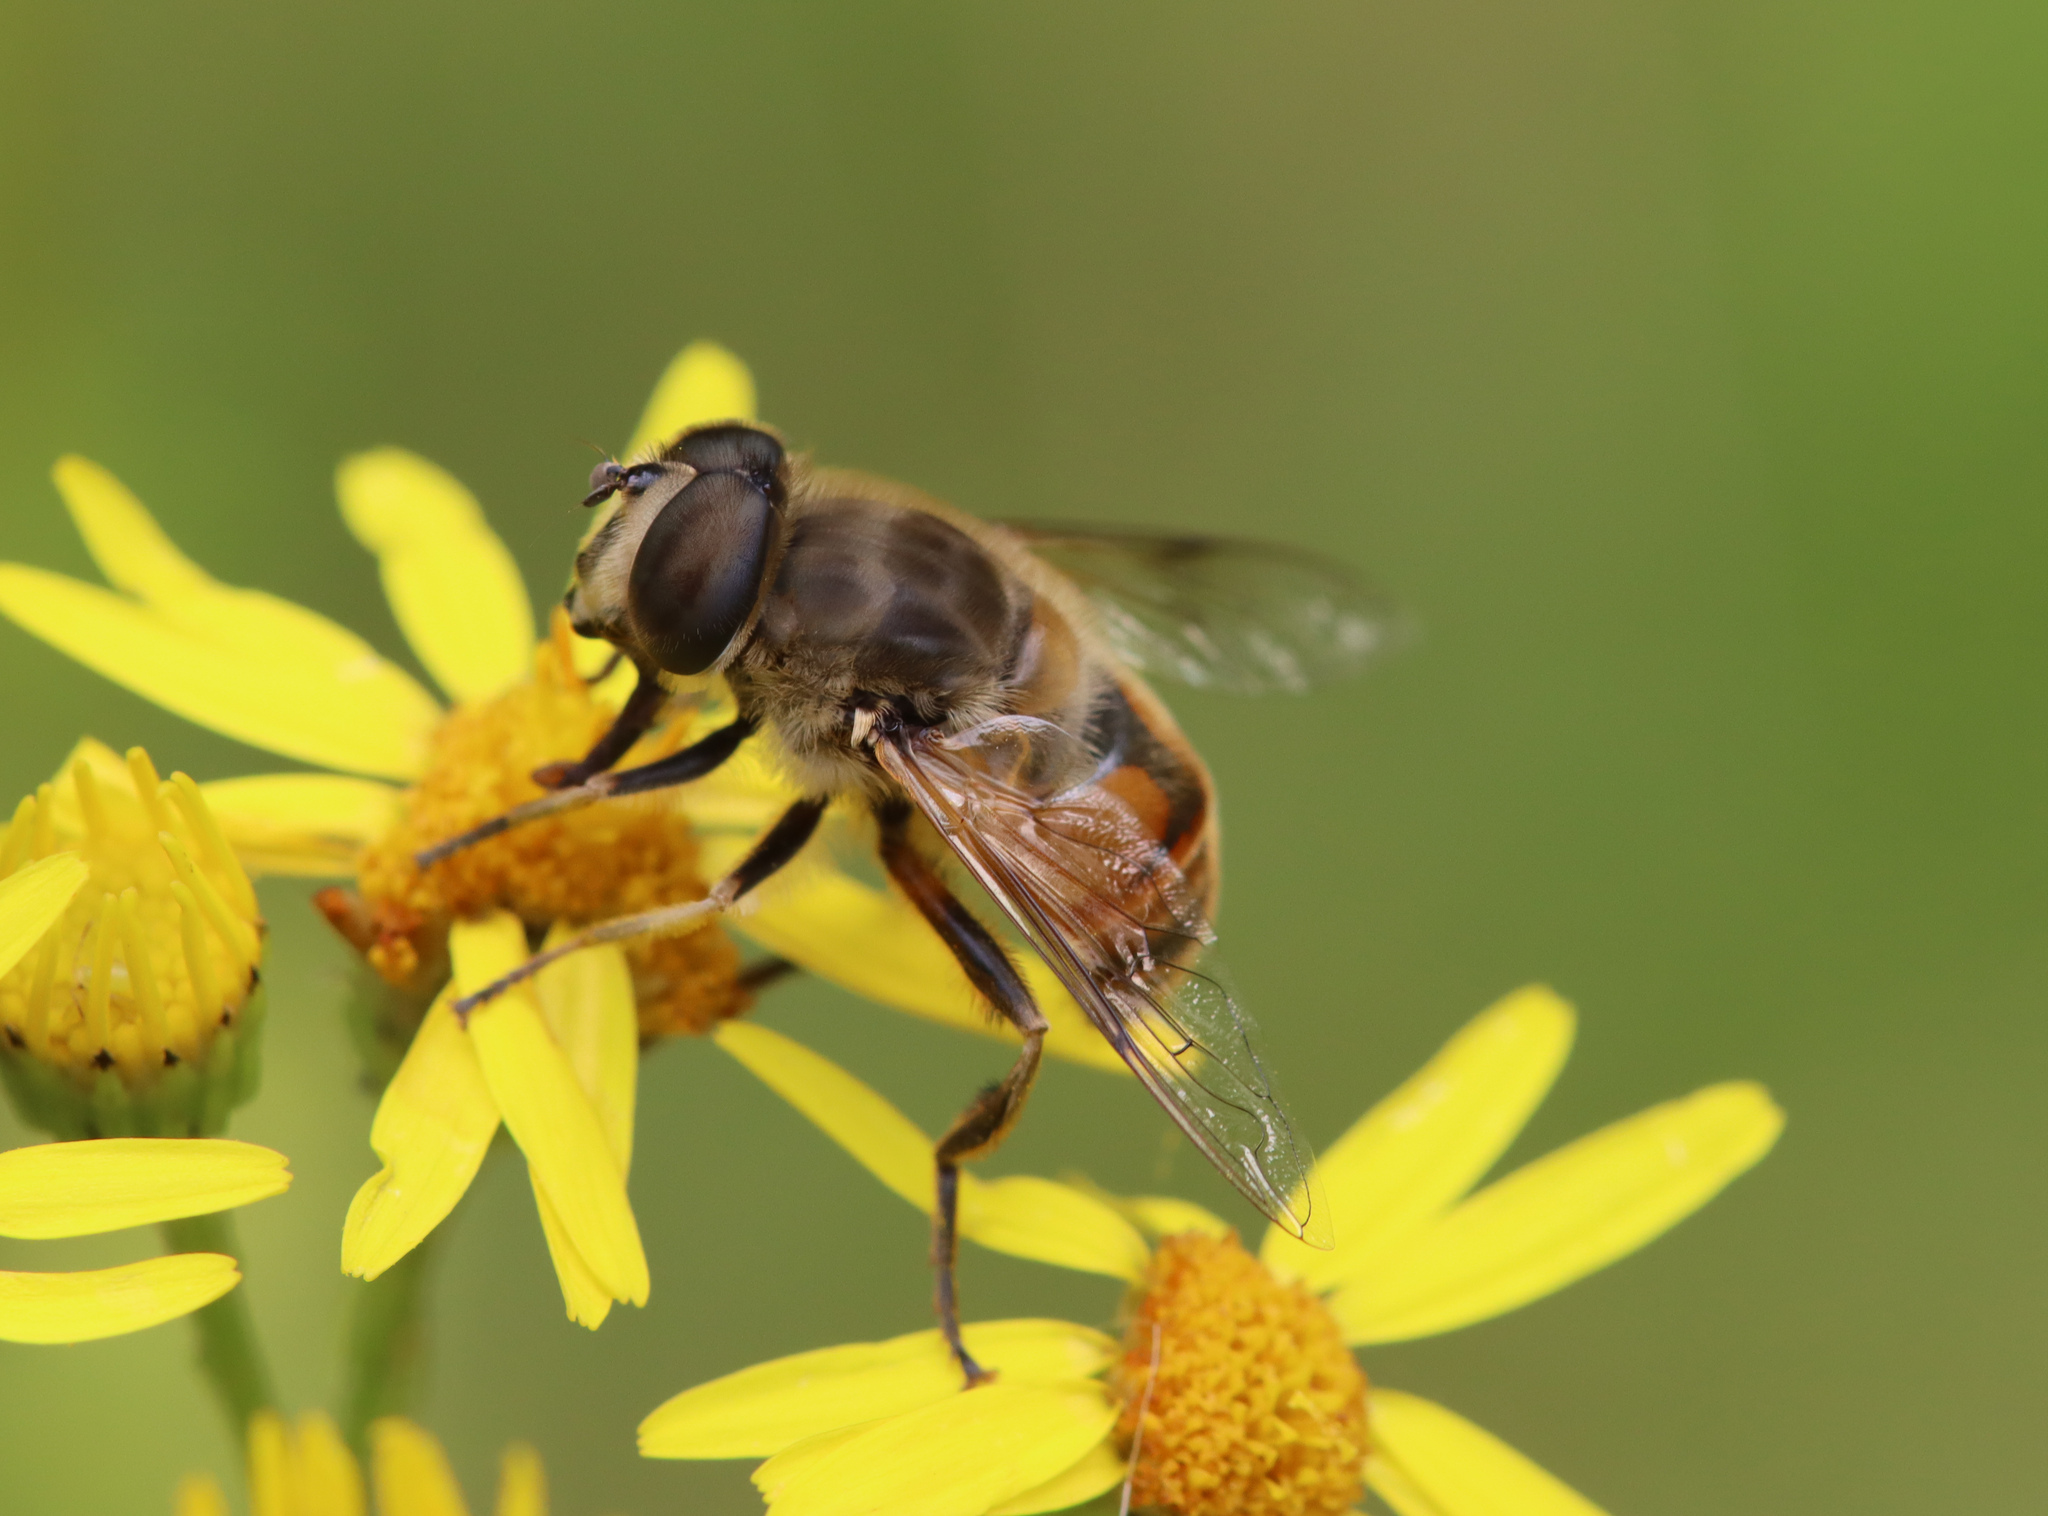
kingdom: Animalia
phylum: Arthropoda
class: Insecta
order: Diptera
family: Syrphidae
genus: Eristalis
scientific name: Eristalis tenax
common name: Drone fly
